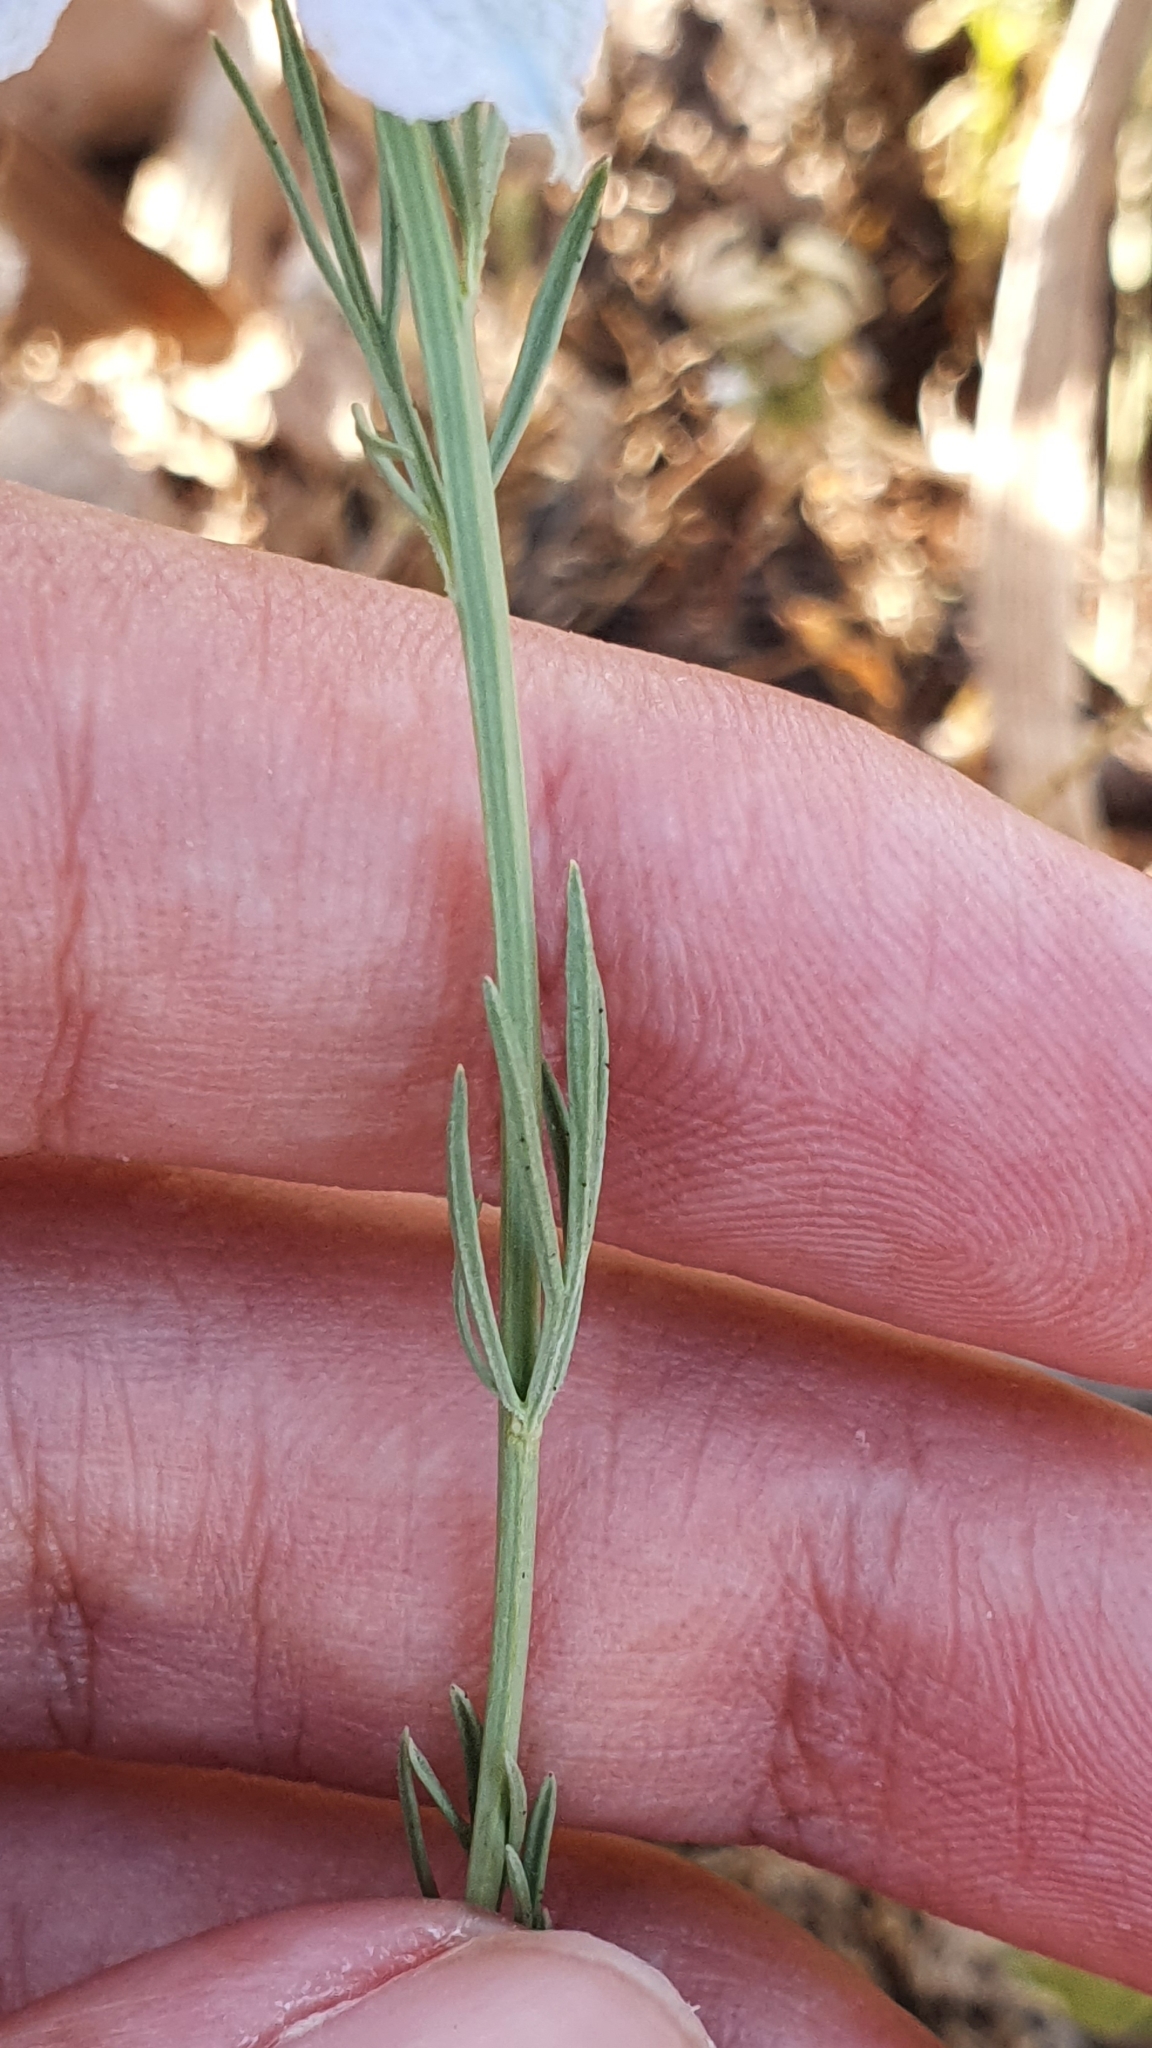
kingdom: Plantae
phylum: Tracheophyta
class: Magnoliopsida
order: Ranunculales
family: Ranunculaceae
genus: Nigella
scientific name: Nigella arvensis
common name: Wild fennel-flower
